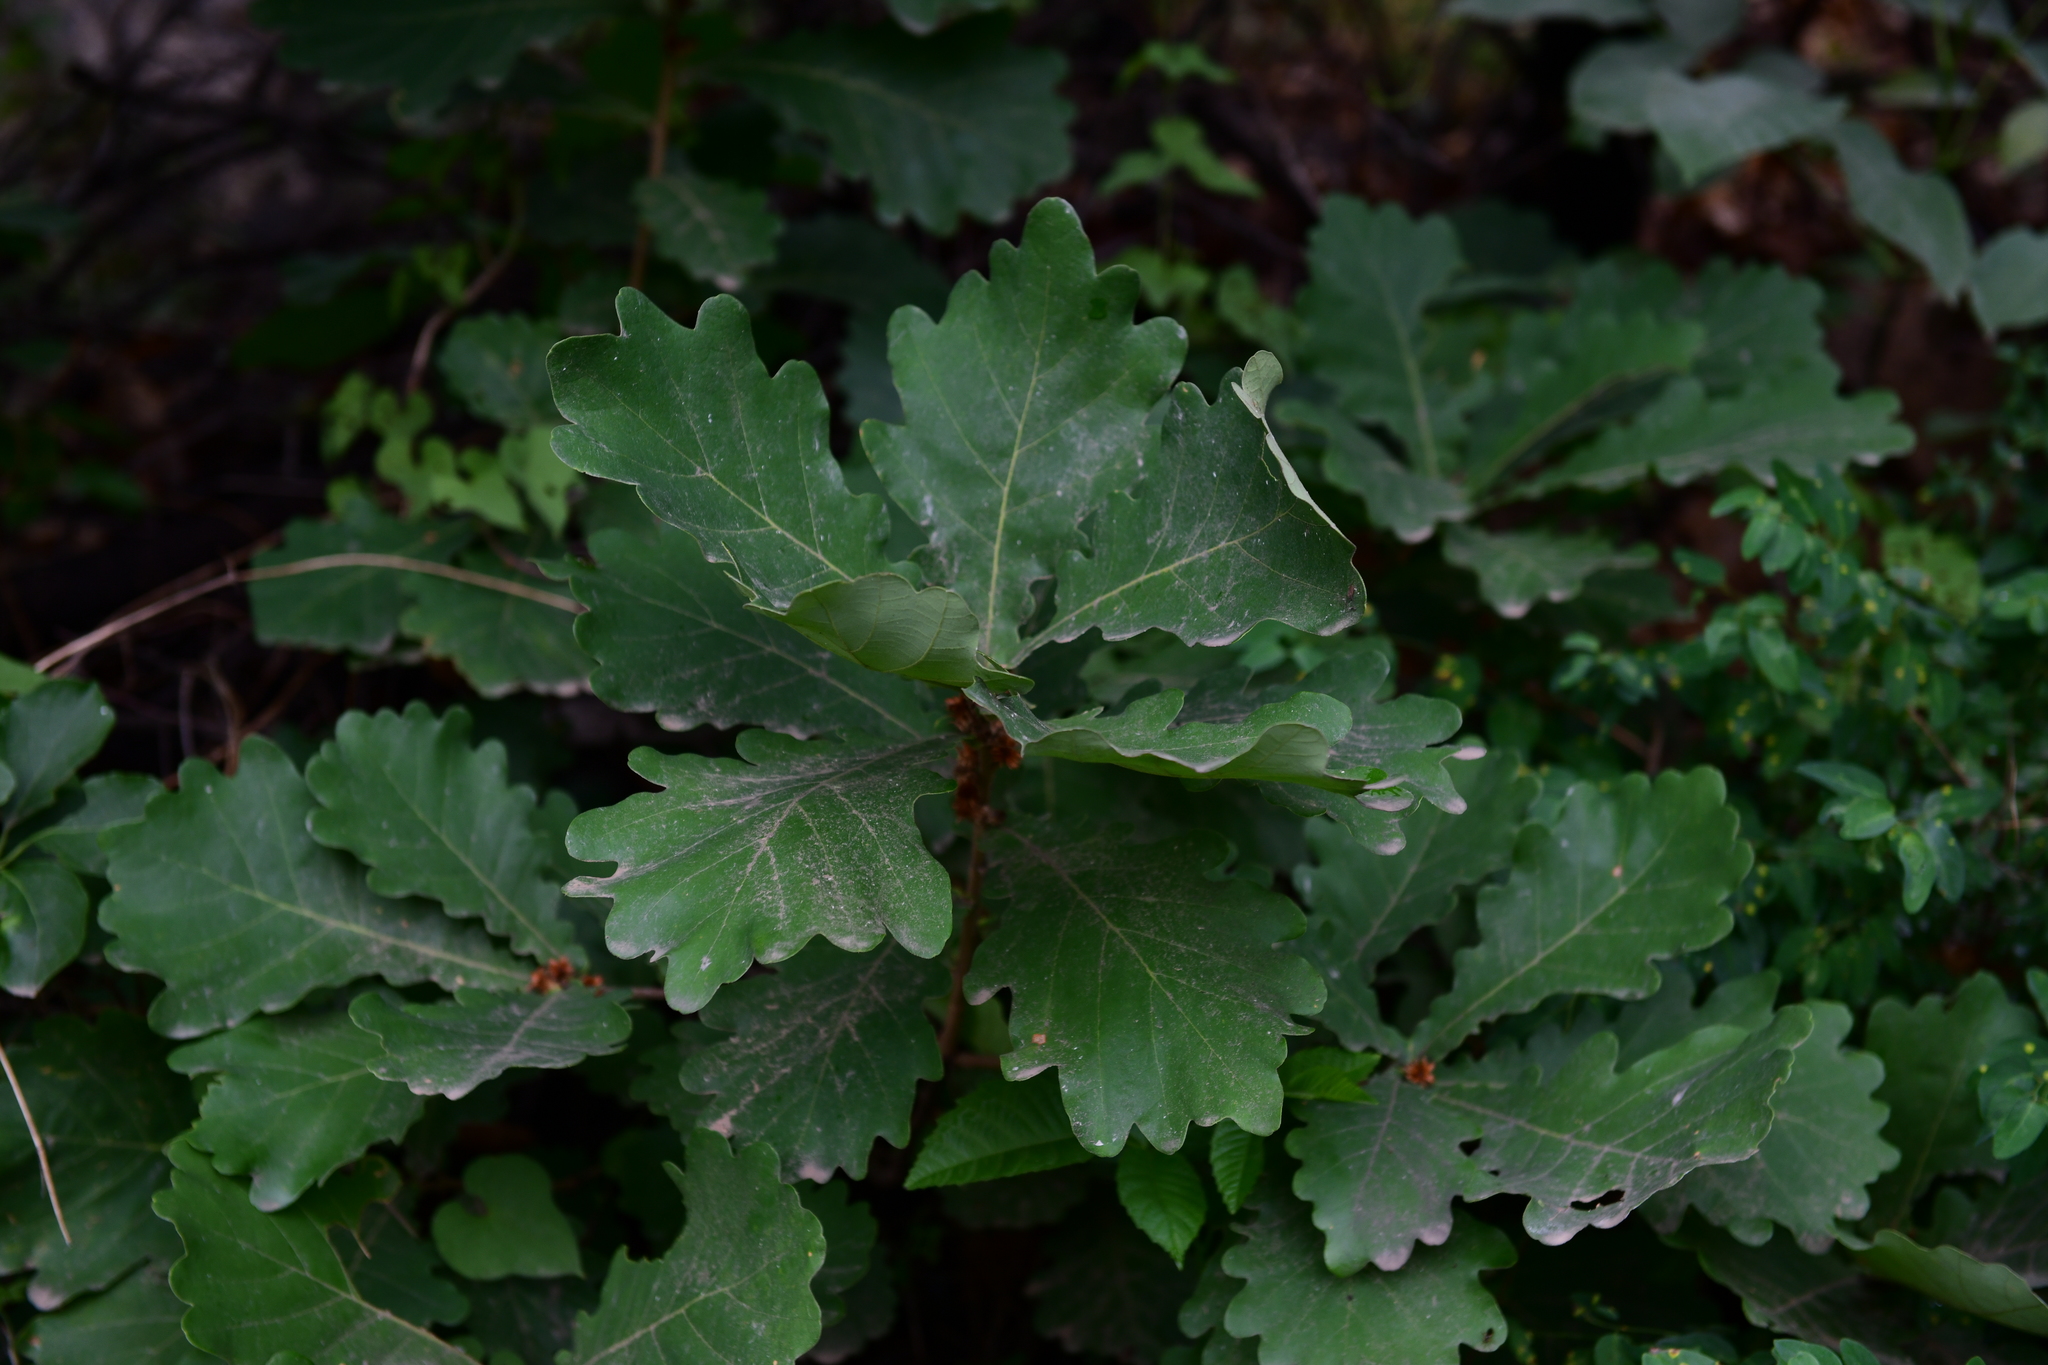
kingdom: Plantae
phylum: Tracheophyta
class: Magnoliopsida
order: Fagales
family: Fagaceae
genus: Quercus
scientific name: Quercus mongolica
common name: Mongolian oak
